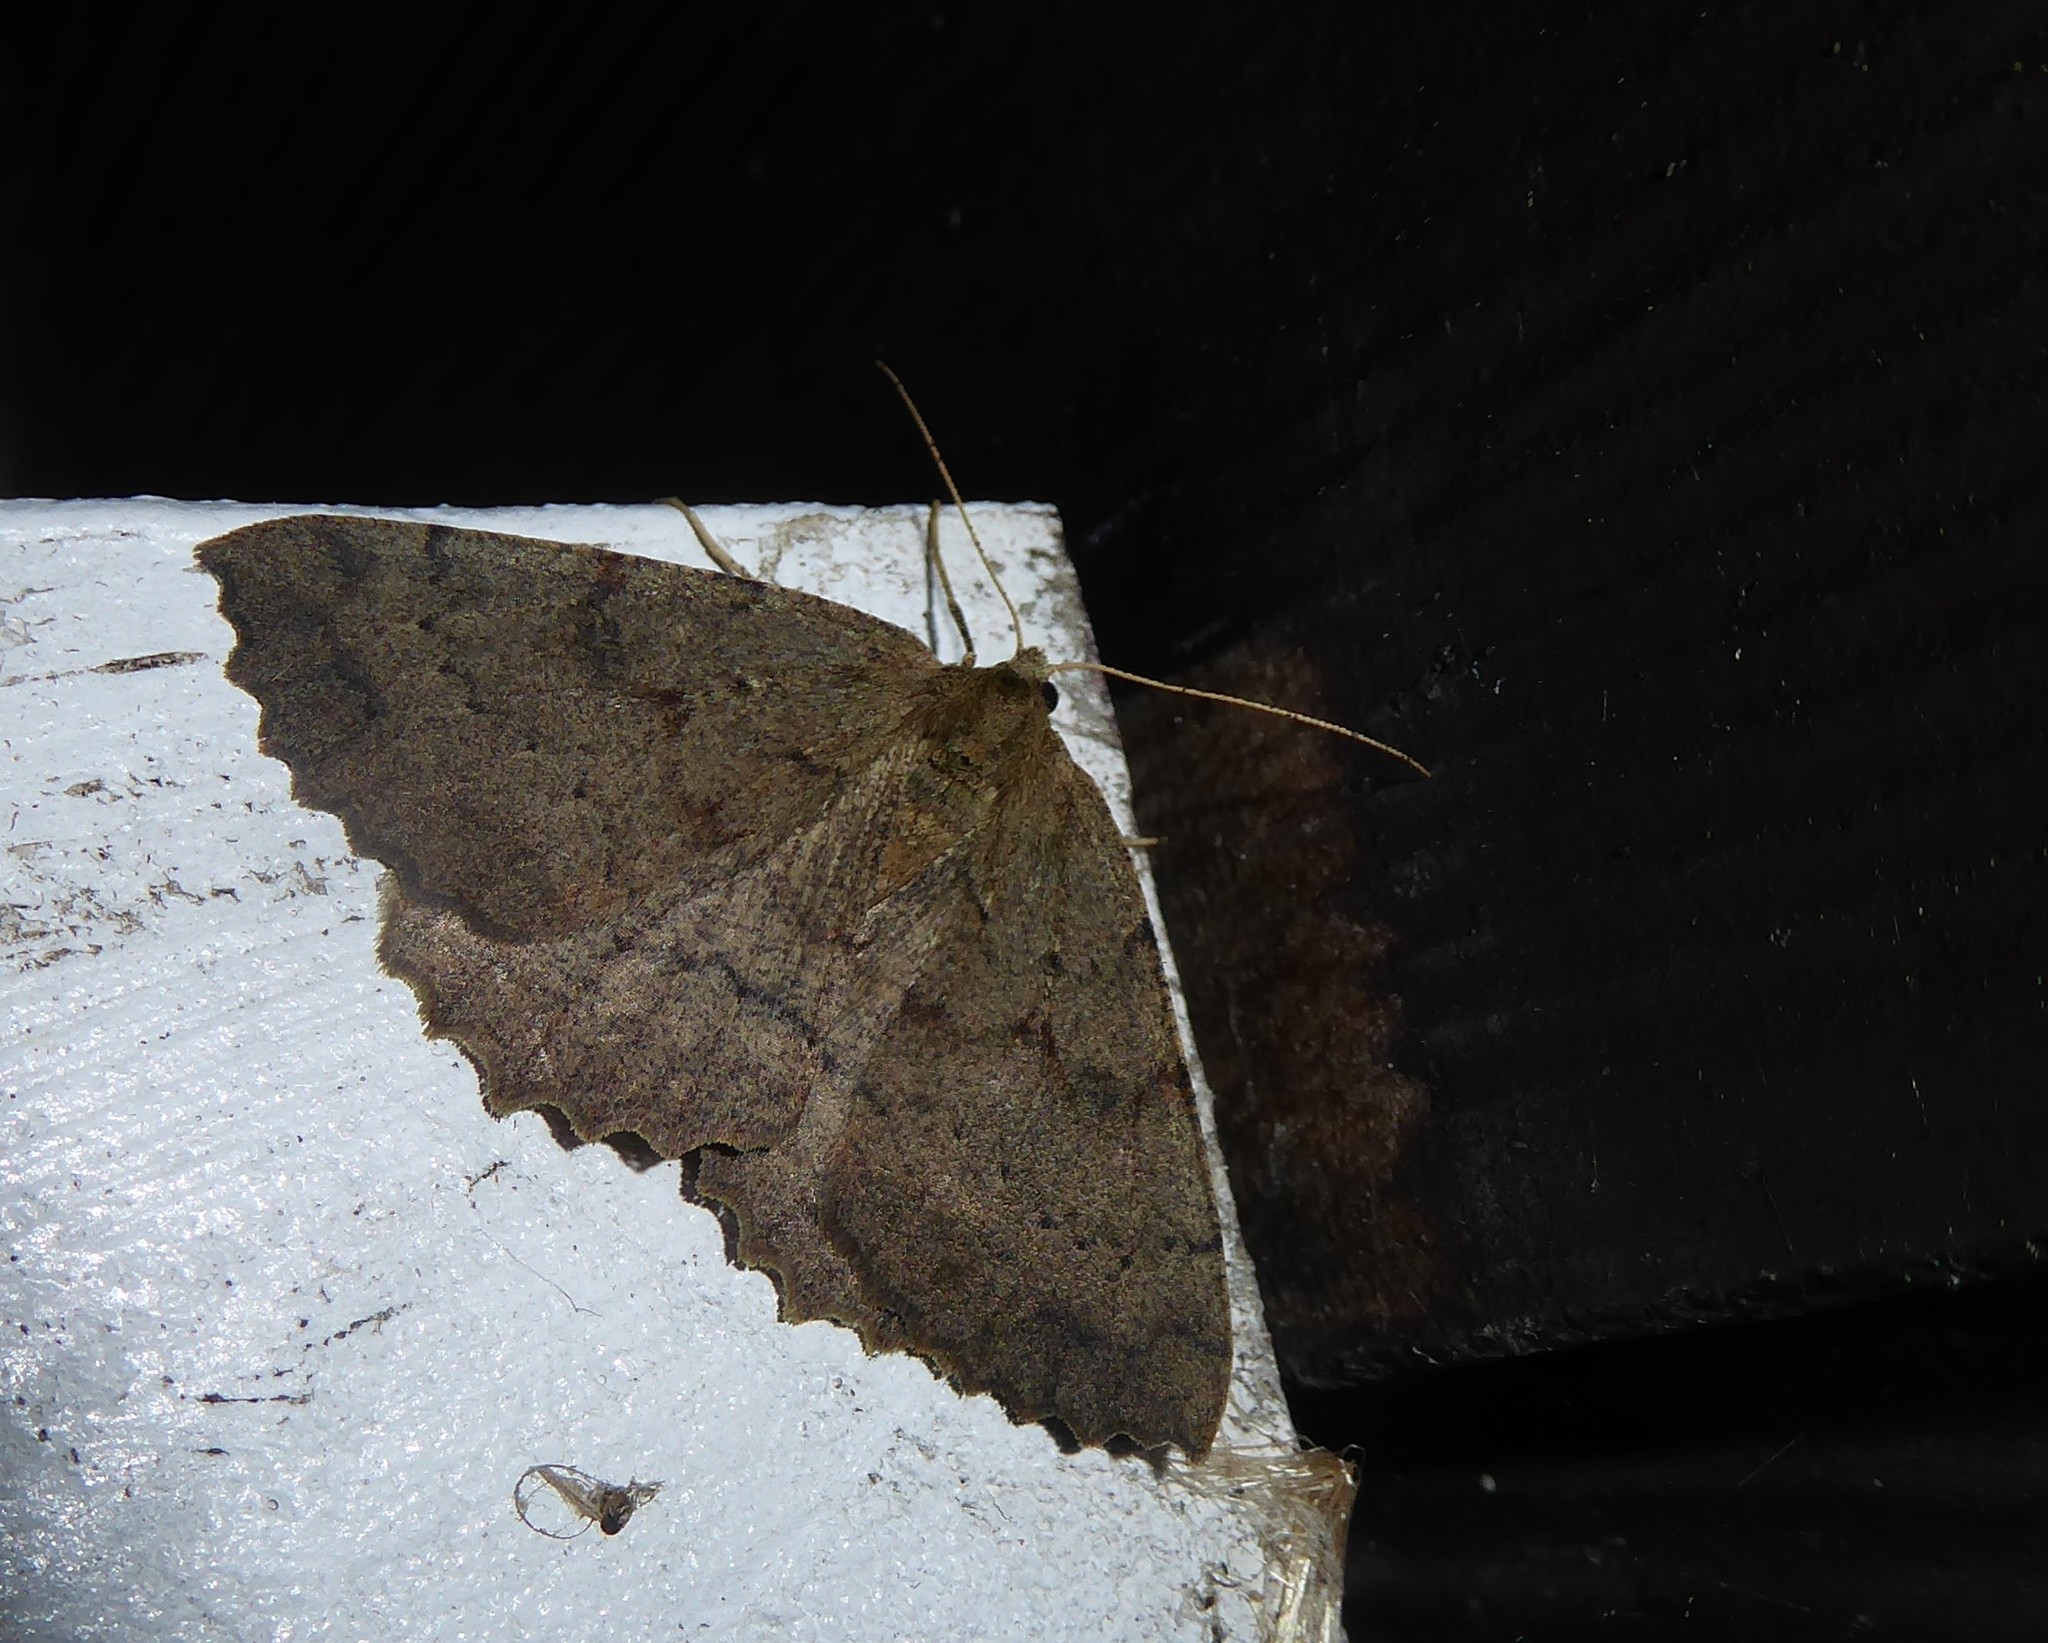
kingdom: Animalia
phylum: Arthropoda
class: Insecta
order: Lepidoptera
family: Geometridae
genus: Cleora
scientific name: Cleora scriptaria
